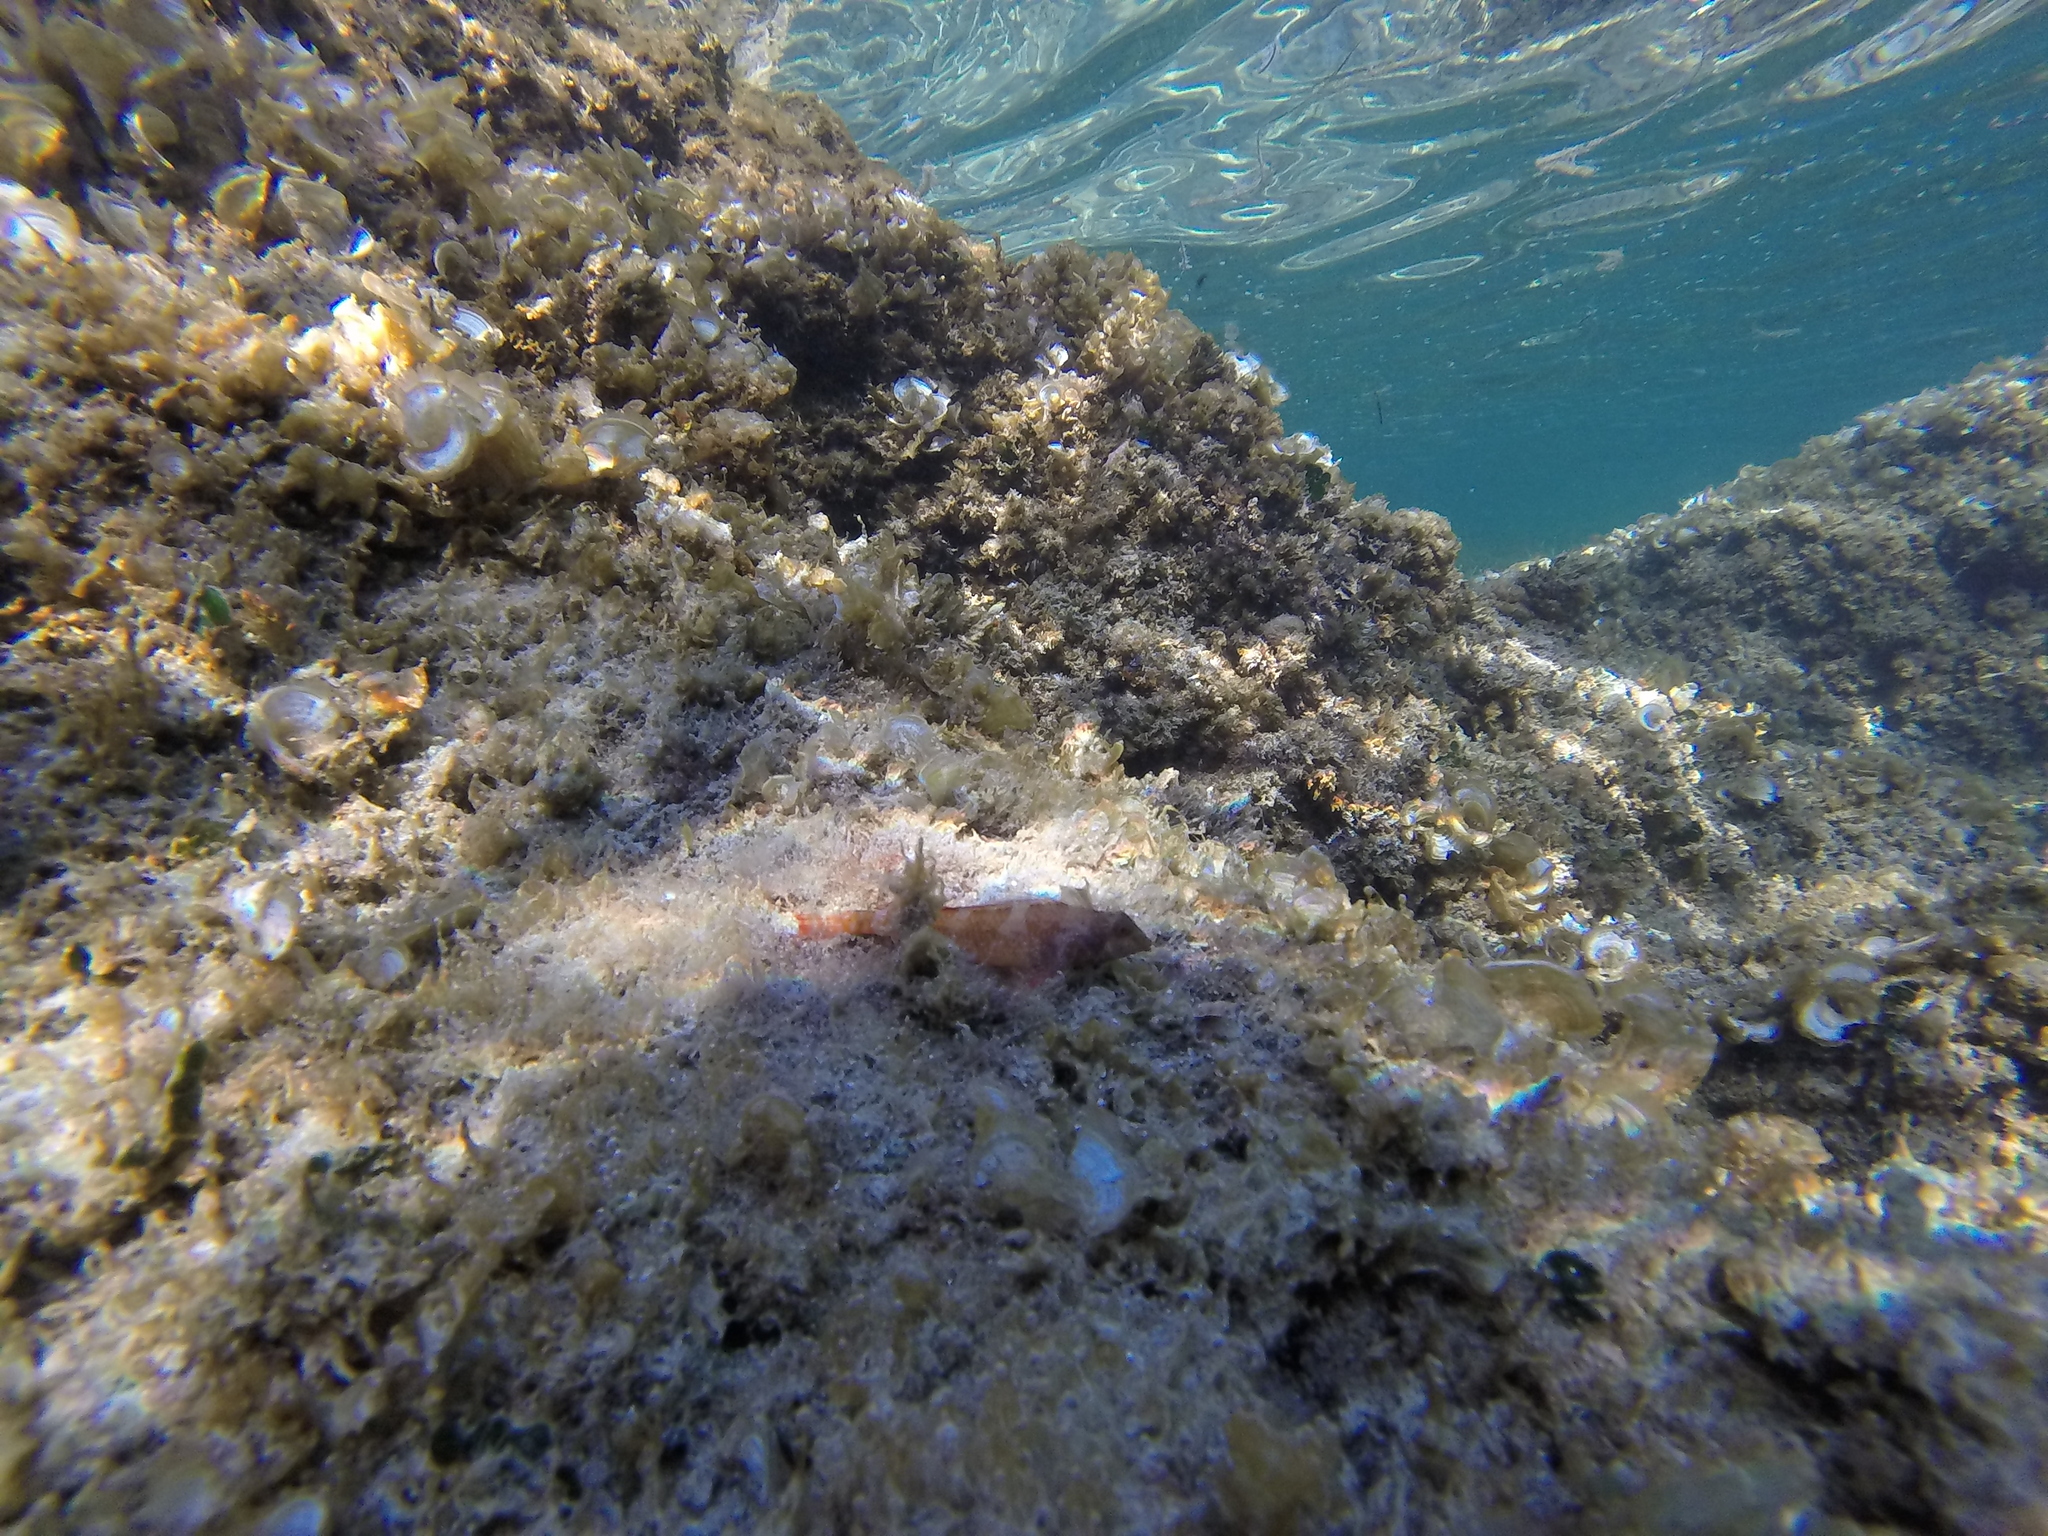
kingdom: Animalia
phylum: Chordata
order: Perciformes
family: Tripterygiidae
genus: Tripterygion
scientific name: Tripterygion tripteronotum
